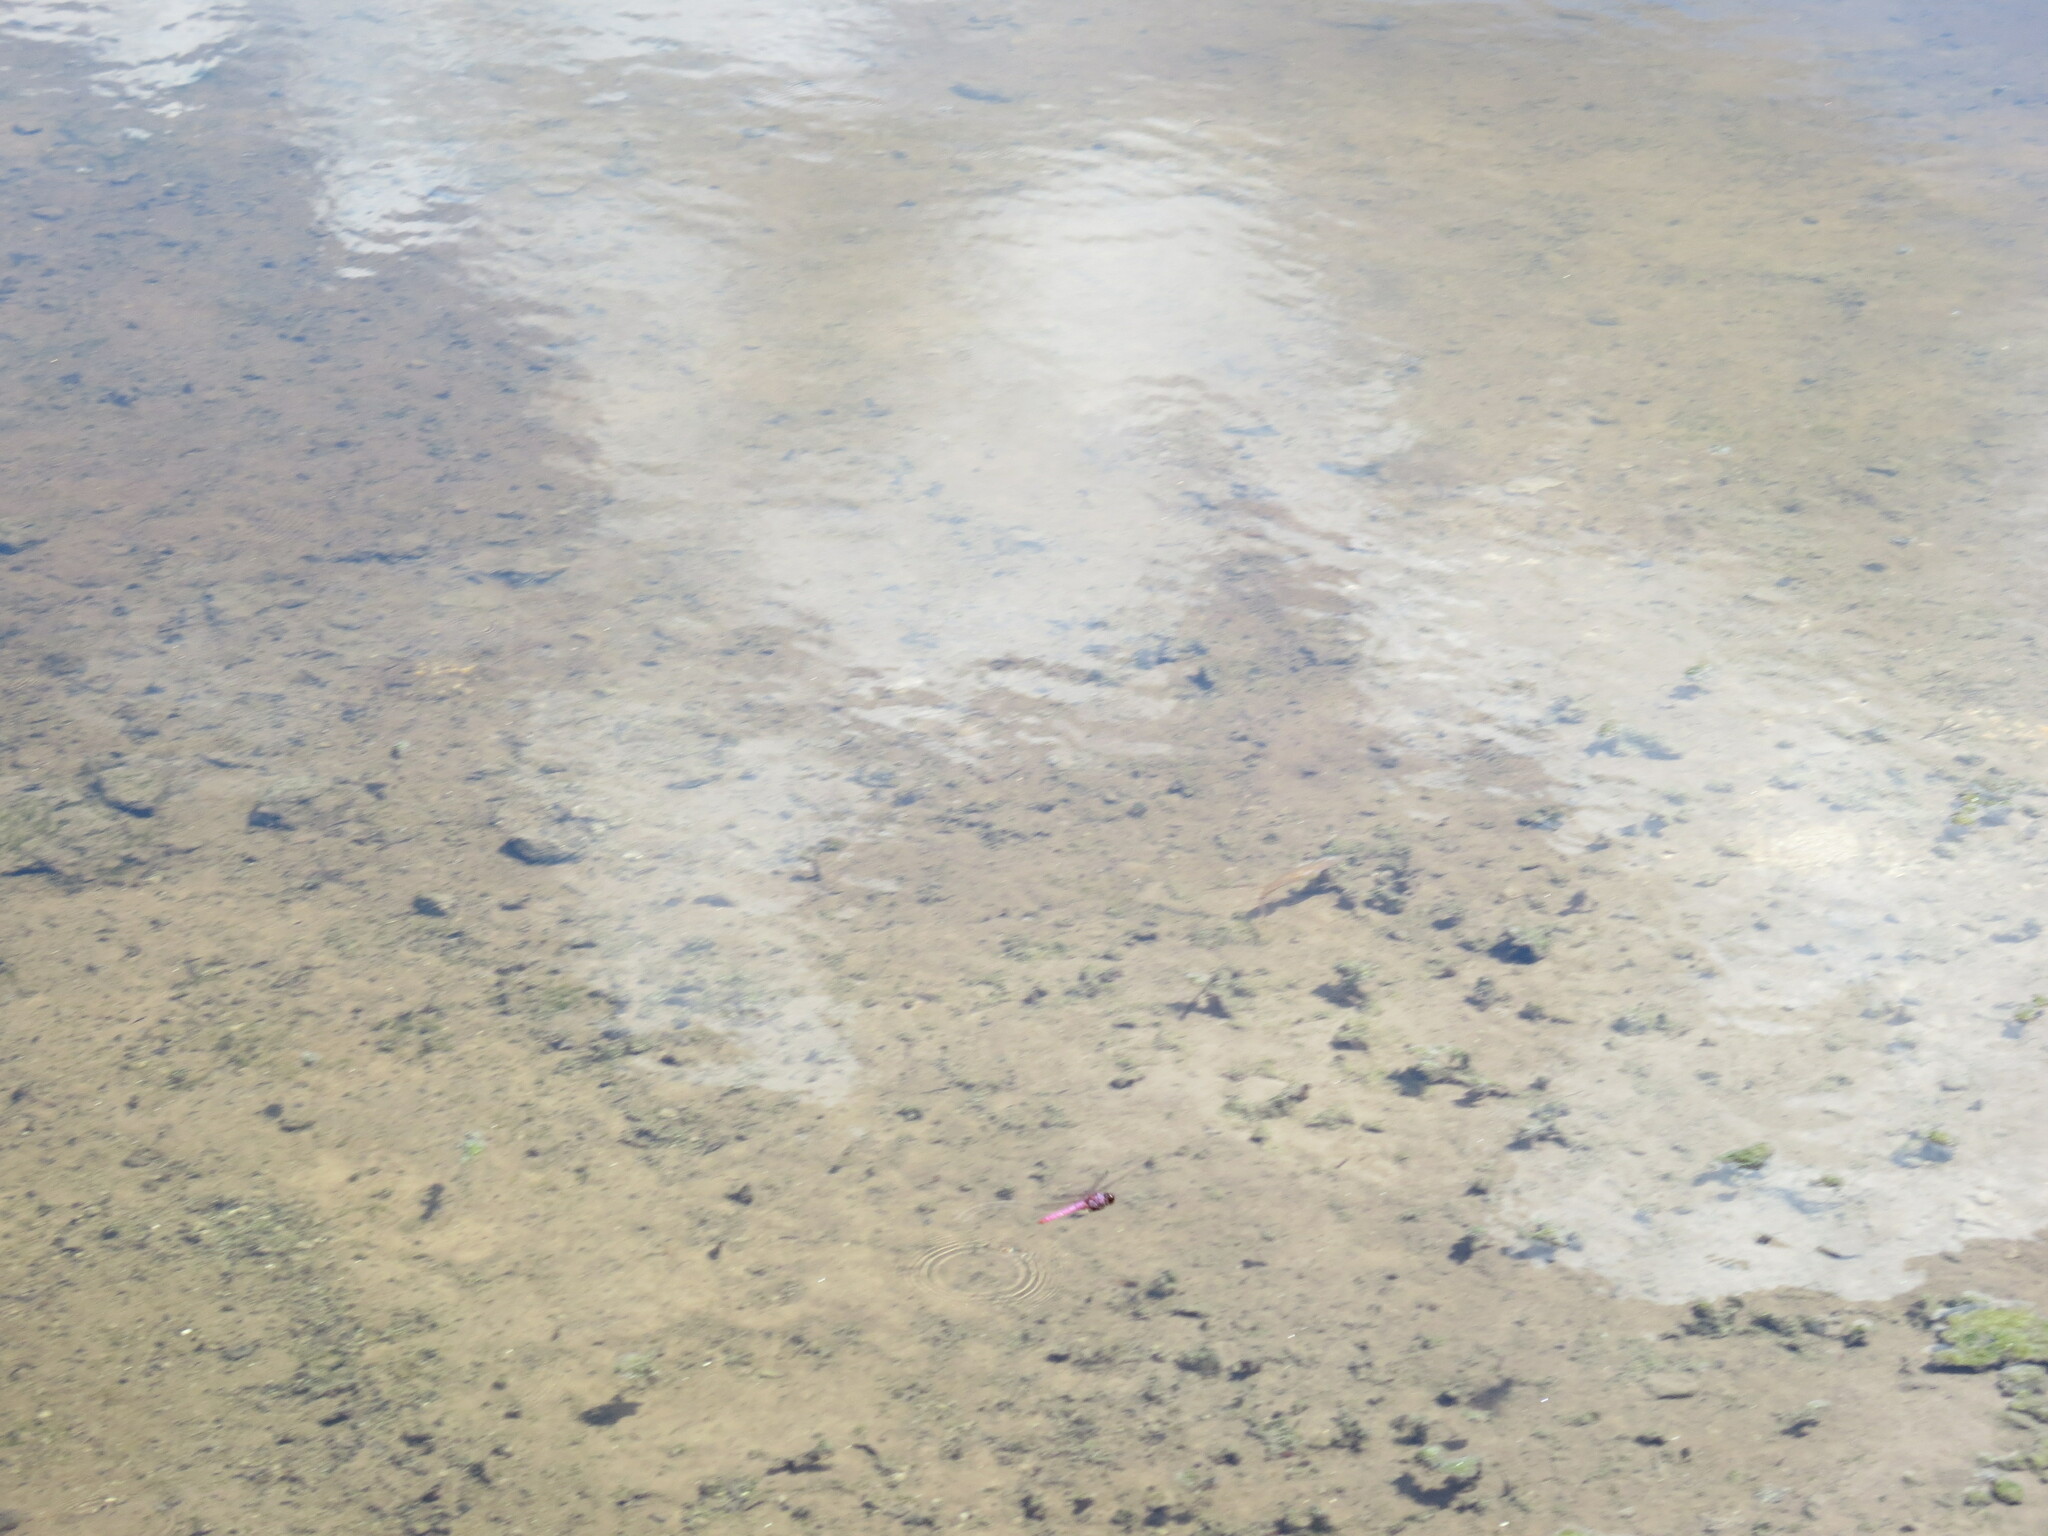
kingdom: Animalia
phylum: Arthropoda
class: Insecta
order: Odonata
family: Libellulidae
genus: Orthemis
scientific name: Orthemis ferruginea
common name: Roseate skimmer
